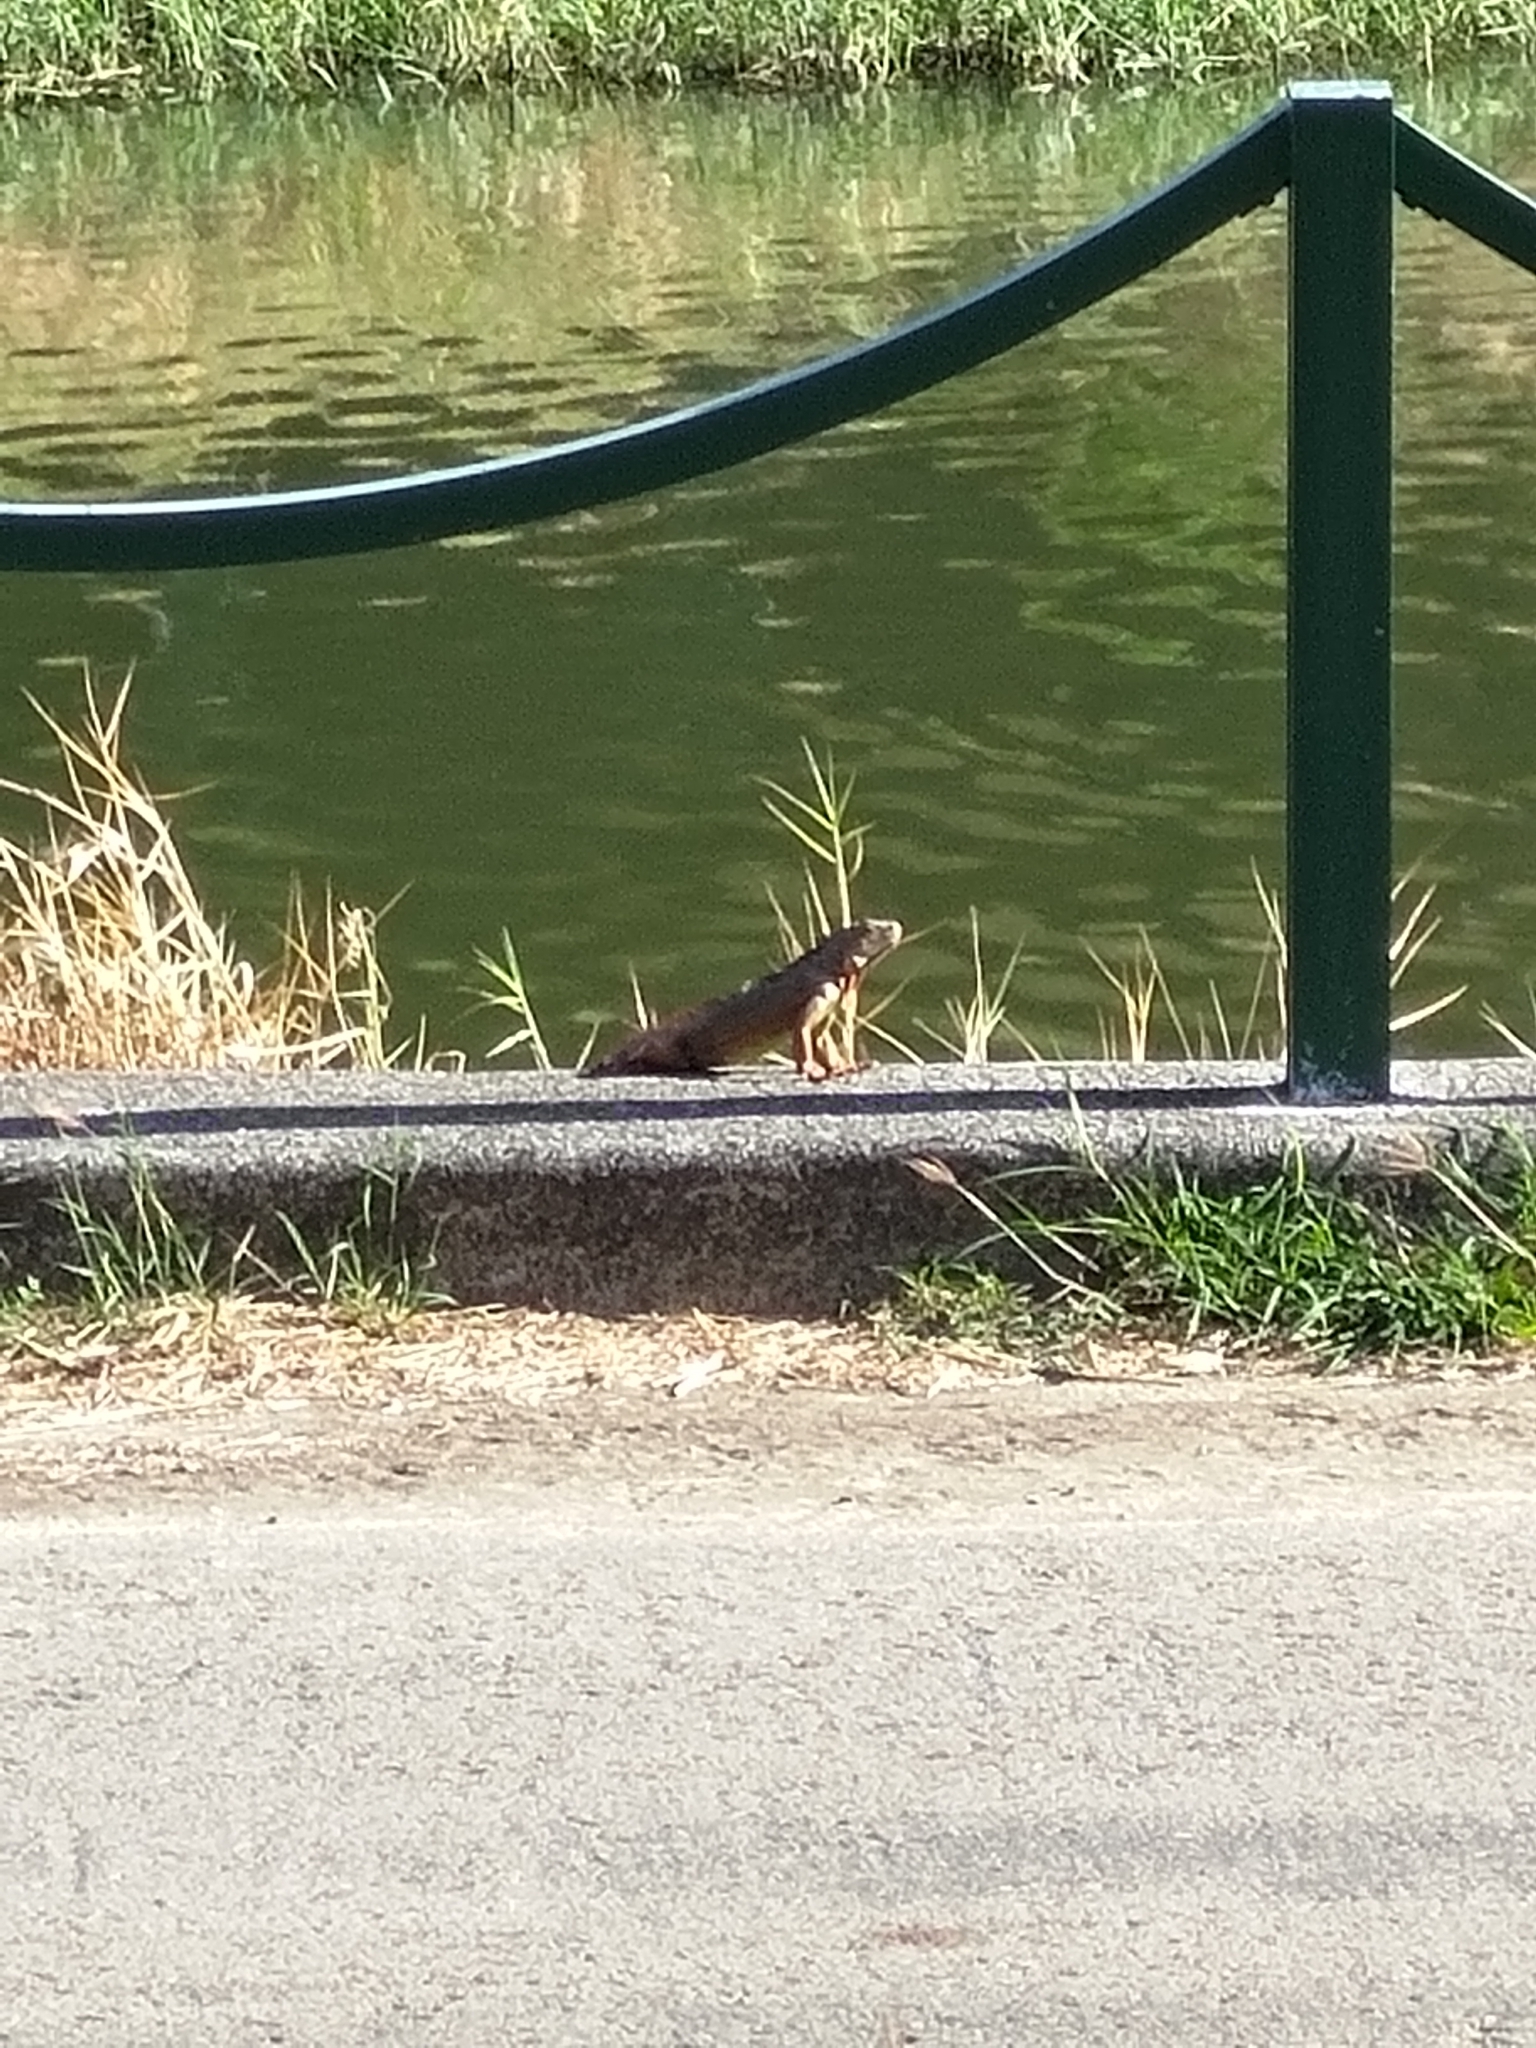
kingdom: Animalia
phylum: Chordata
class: Squamata
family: Iguanidae
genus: Iguana
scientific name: Iguana iguana
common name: Green iguana
